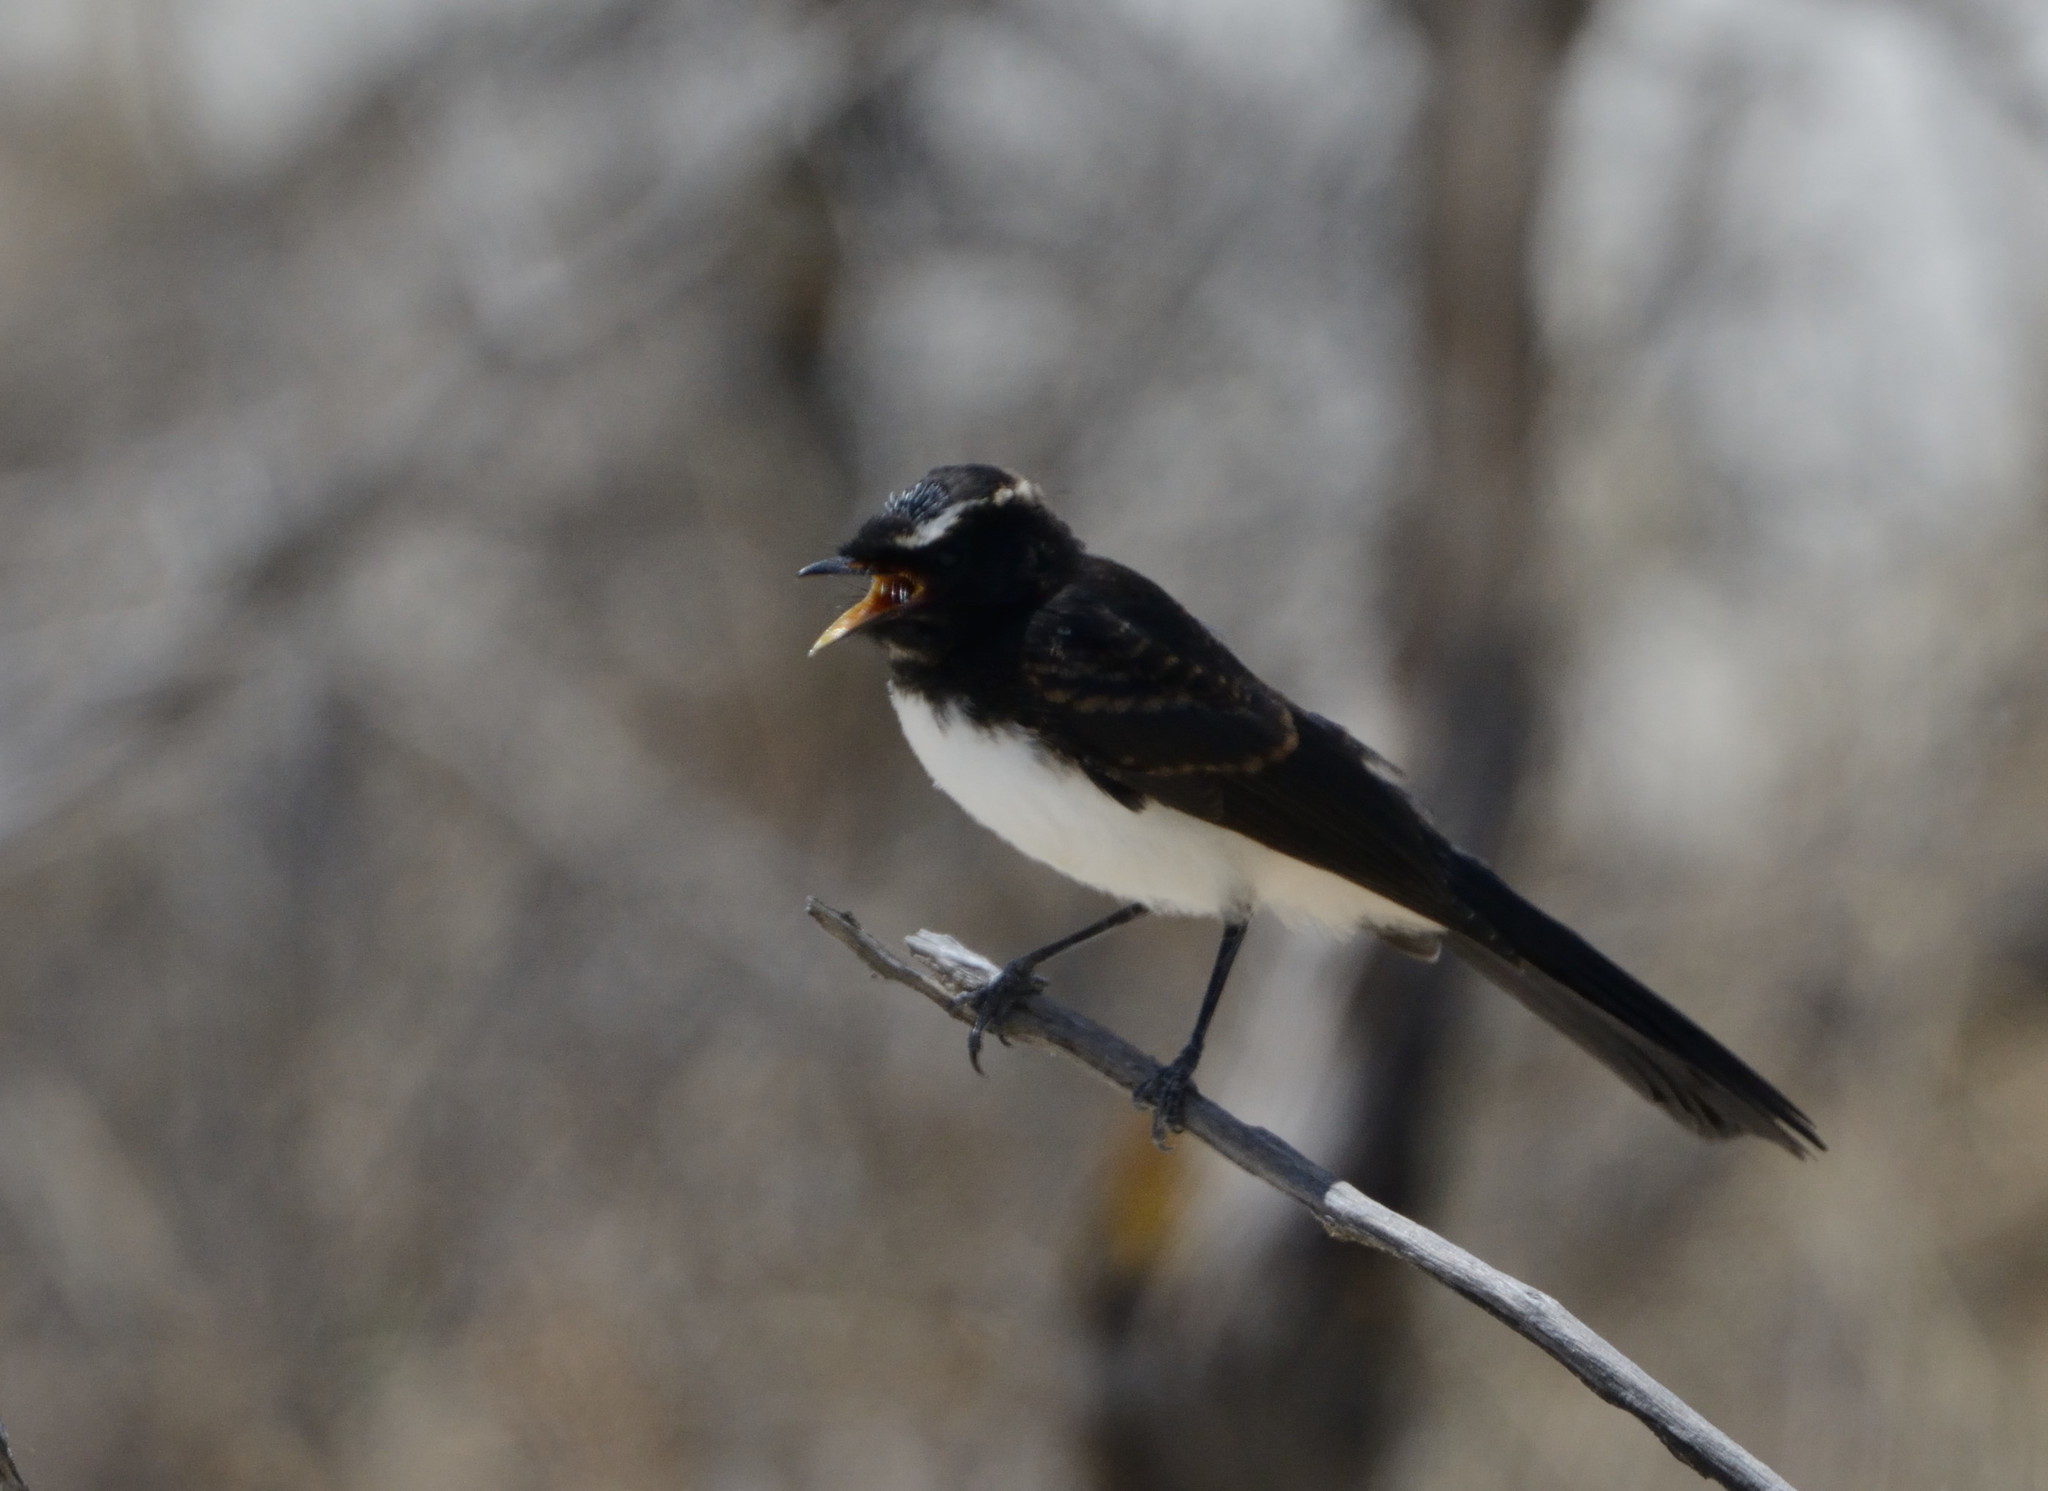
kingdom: Animalia
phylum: Chordata
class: Aves
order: Passeriformes
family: Rhipiduridae
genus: Rhipidura
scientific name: Rhipidura leucophrys
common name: Willie wagtail
